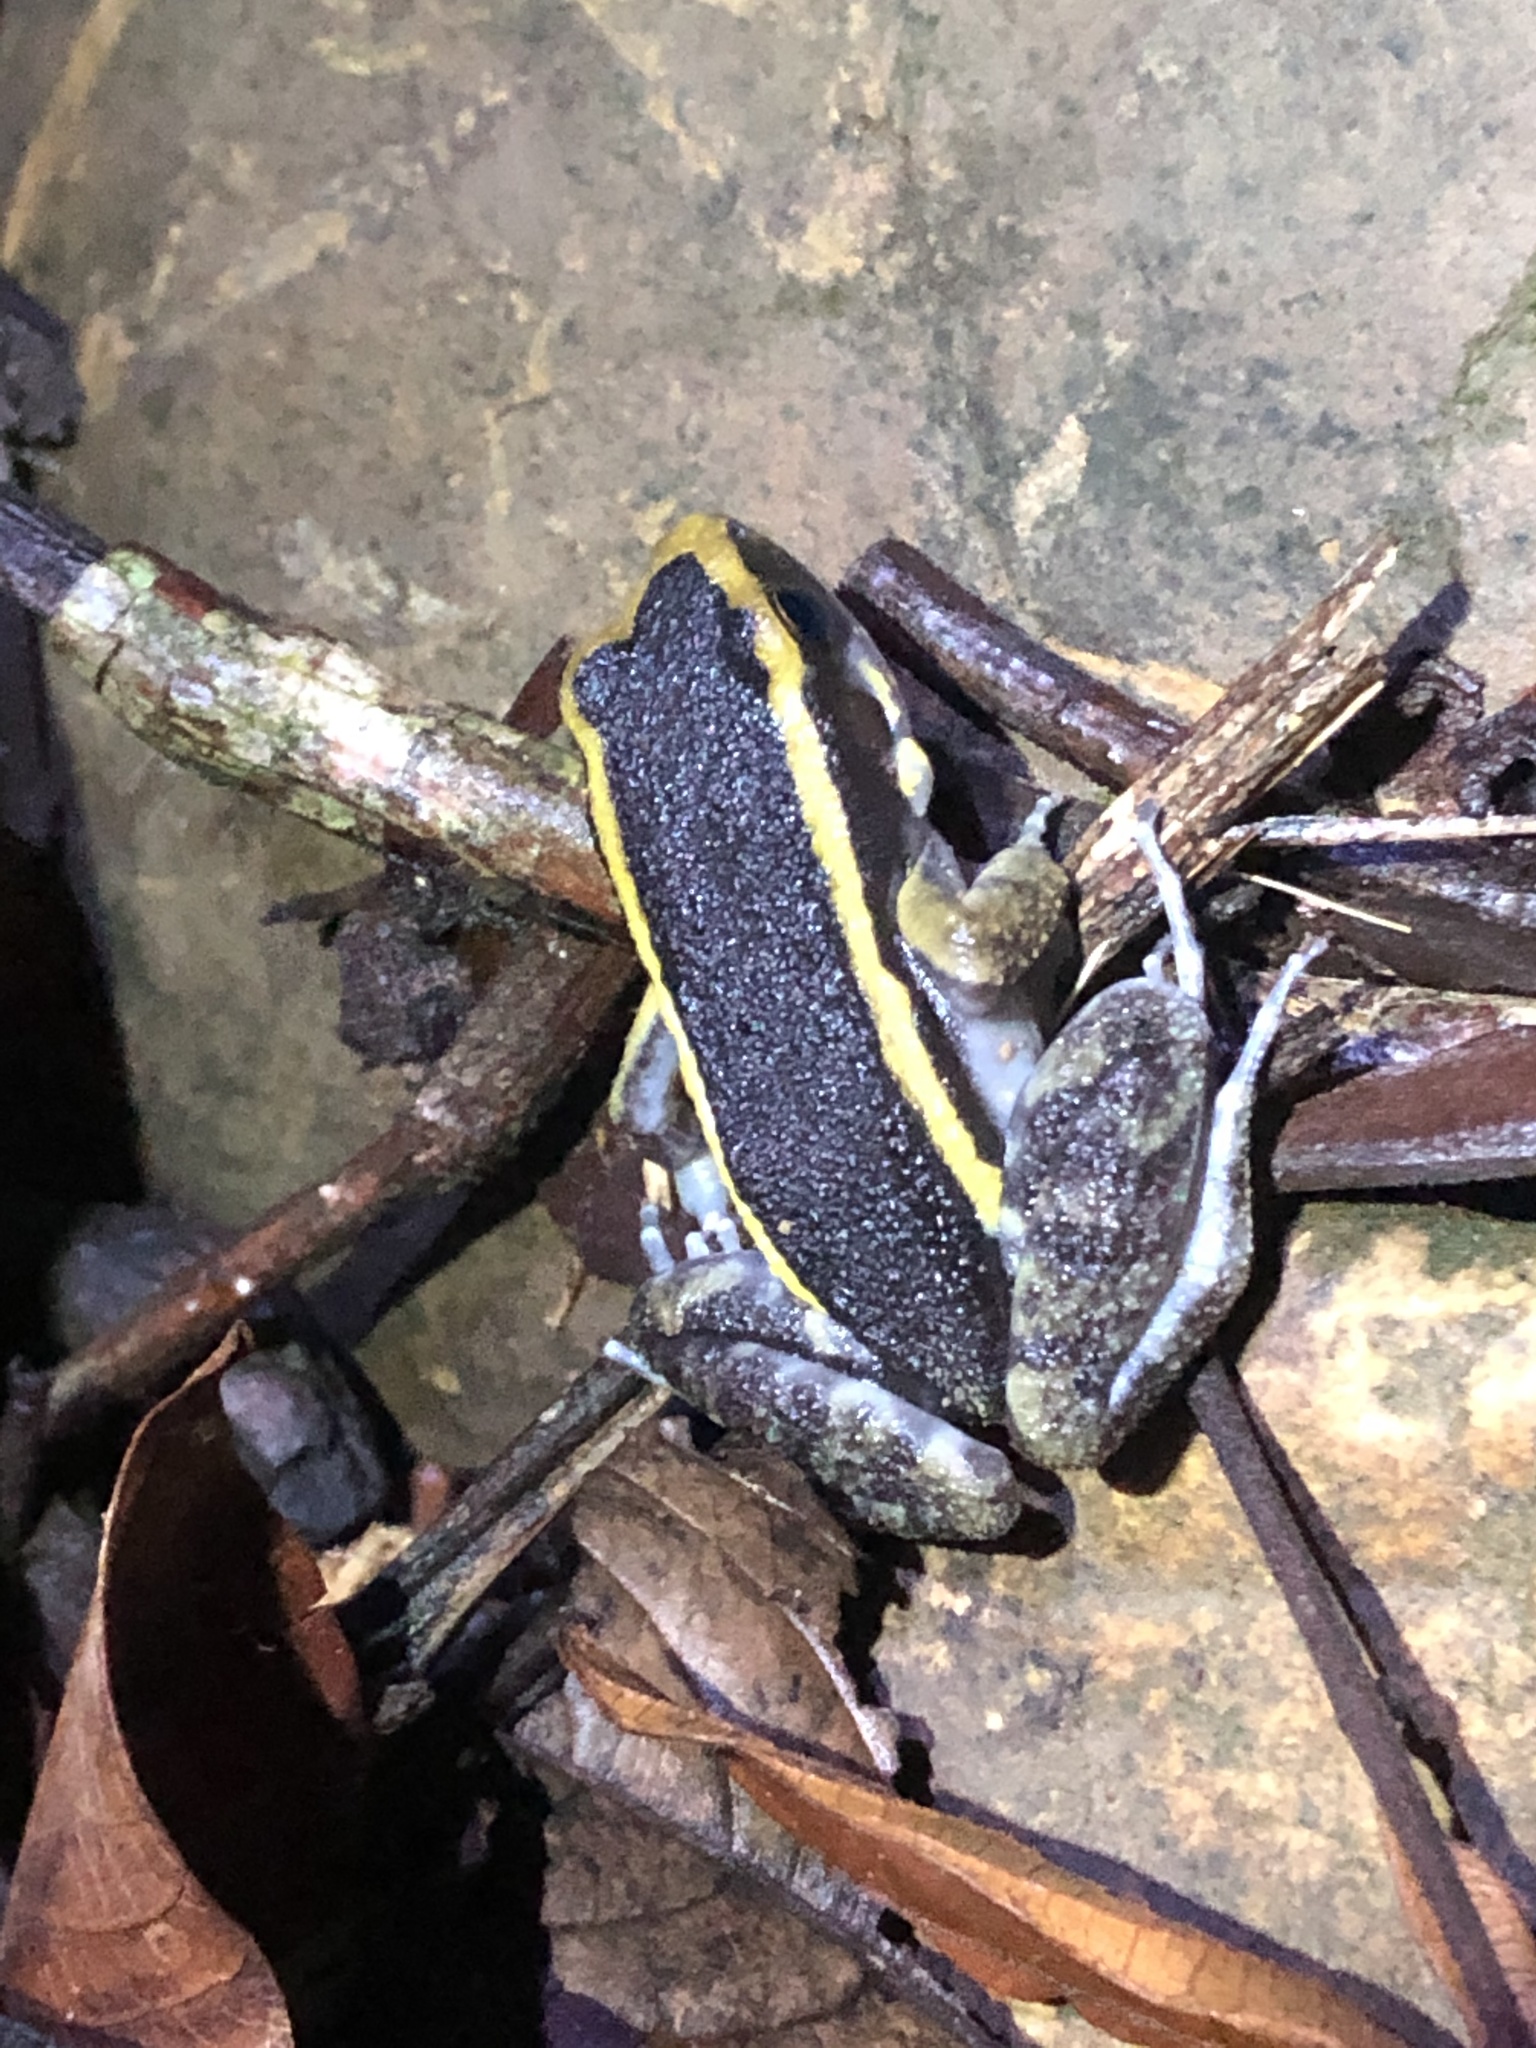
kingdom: Animalia
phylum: Chordata
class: Amphibia
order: Anura
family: Leptodactylidae
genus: Lithodytes
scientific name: Lithodytes lineatus
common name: Gold-striped frog
